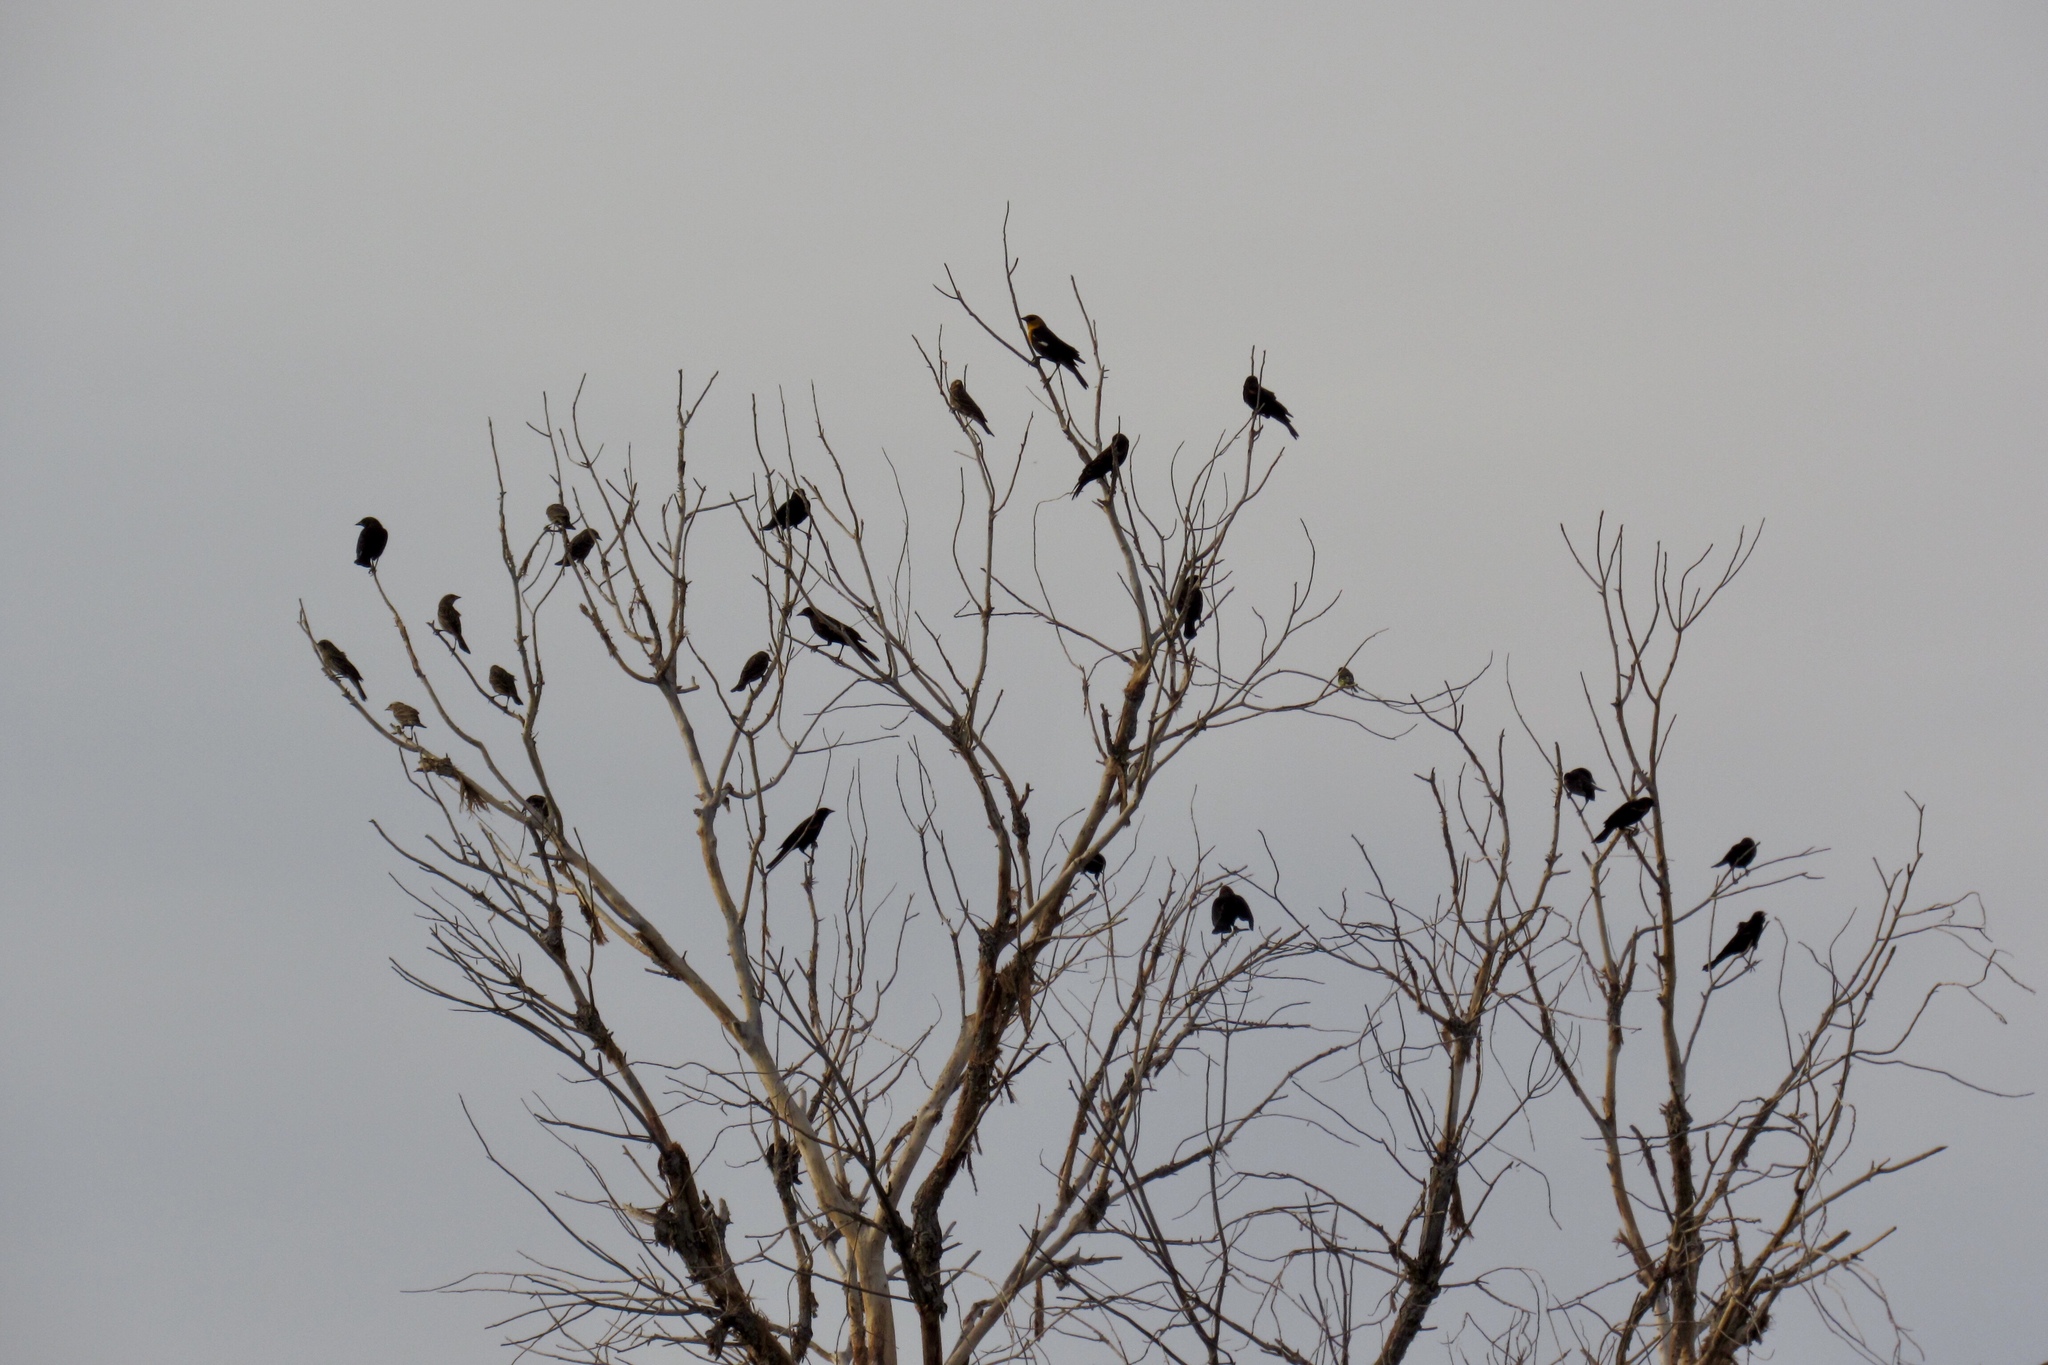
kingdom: Animalia
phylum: Chordata
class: Aves
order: Passeriformes
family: Icteridae
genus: Xanthocephalus
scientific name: Xanthocephalus xanthocephalus
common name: Yellow-headed blackbird
